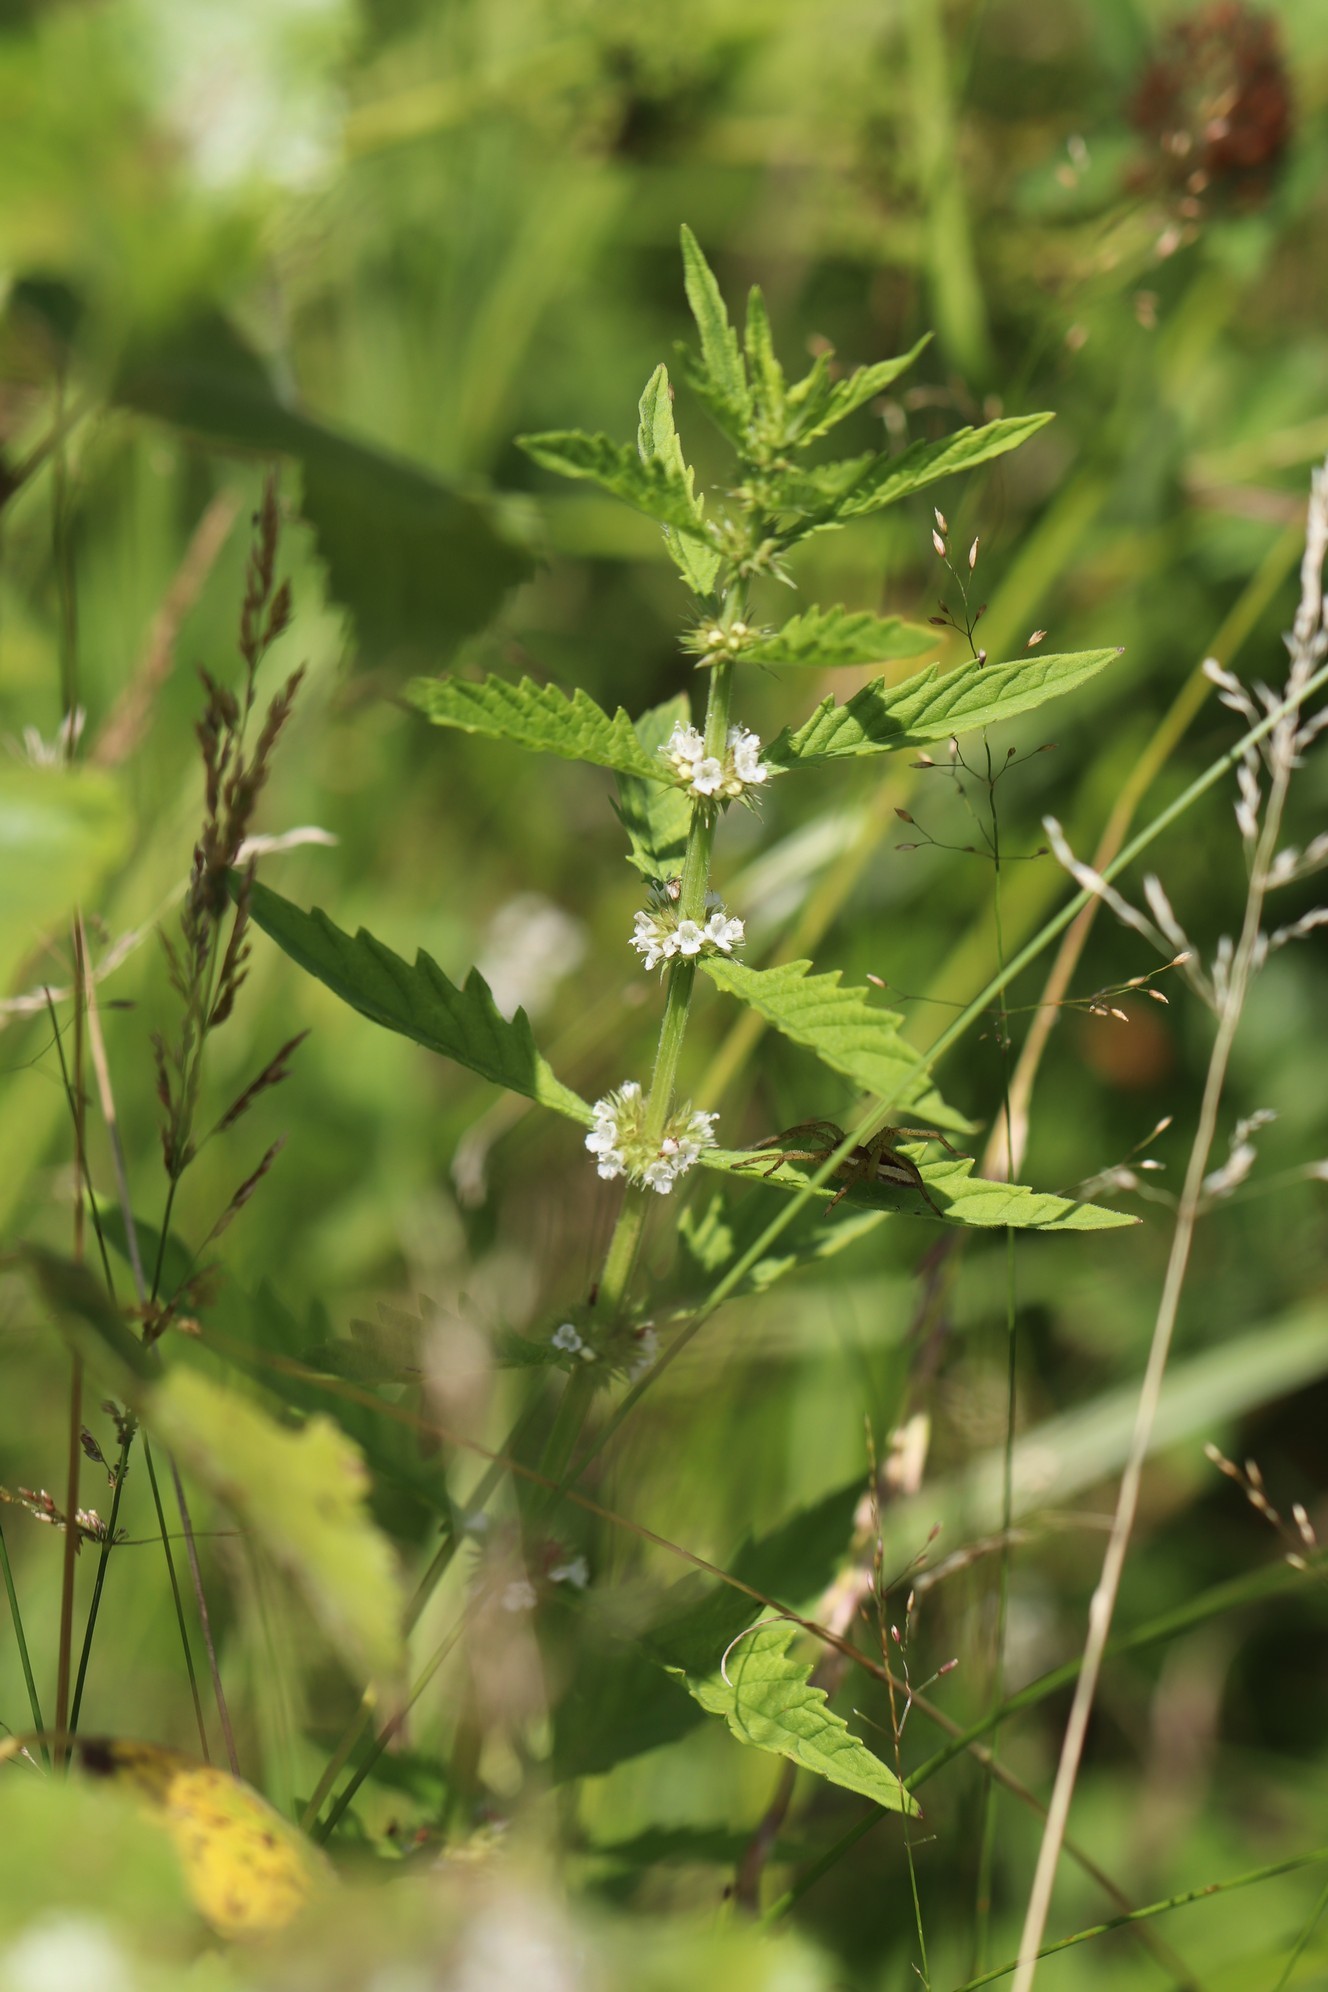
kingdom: Plantae
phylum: Tracheophyta
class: Magnoliopsida
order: Lamiales
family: Lamiaceae
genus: Lycopus
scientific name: Lycopus europaeus
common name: European bugleweed
